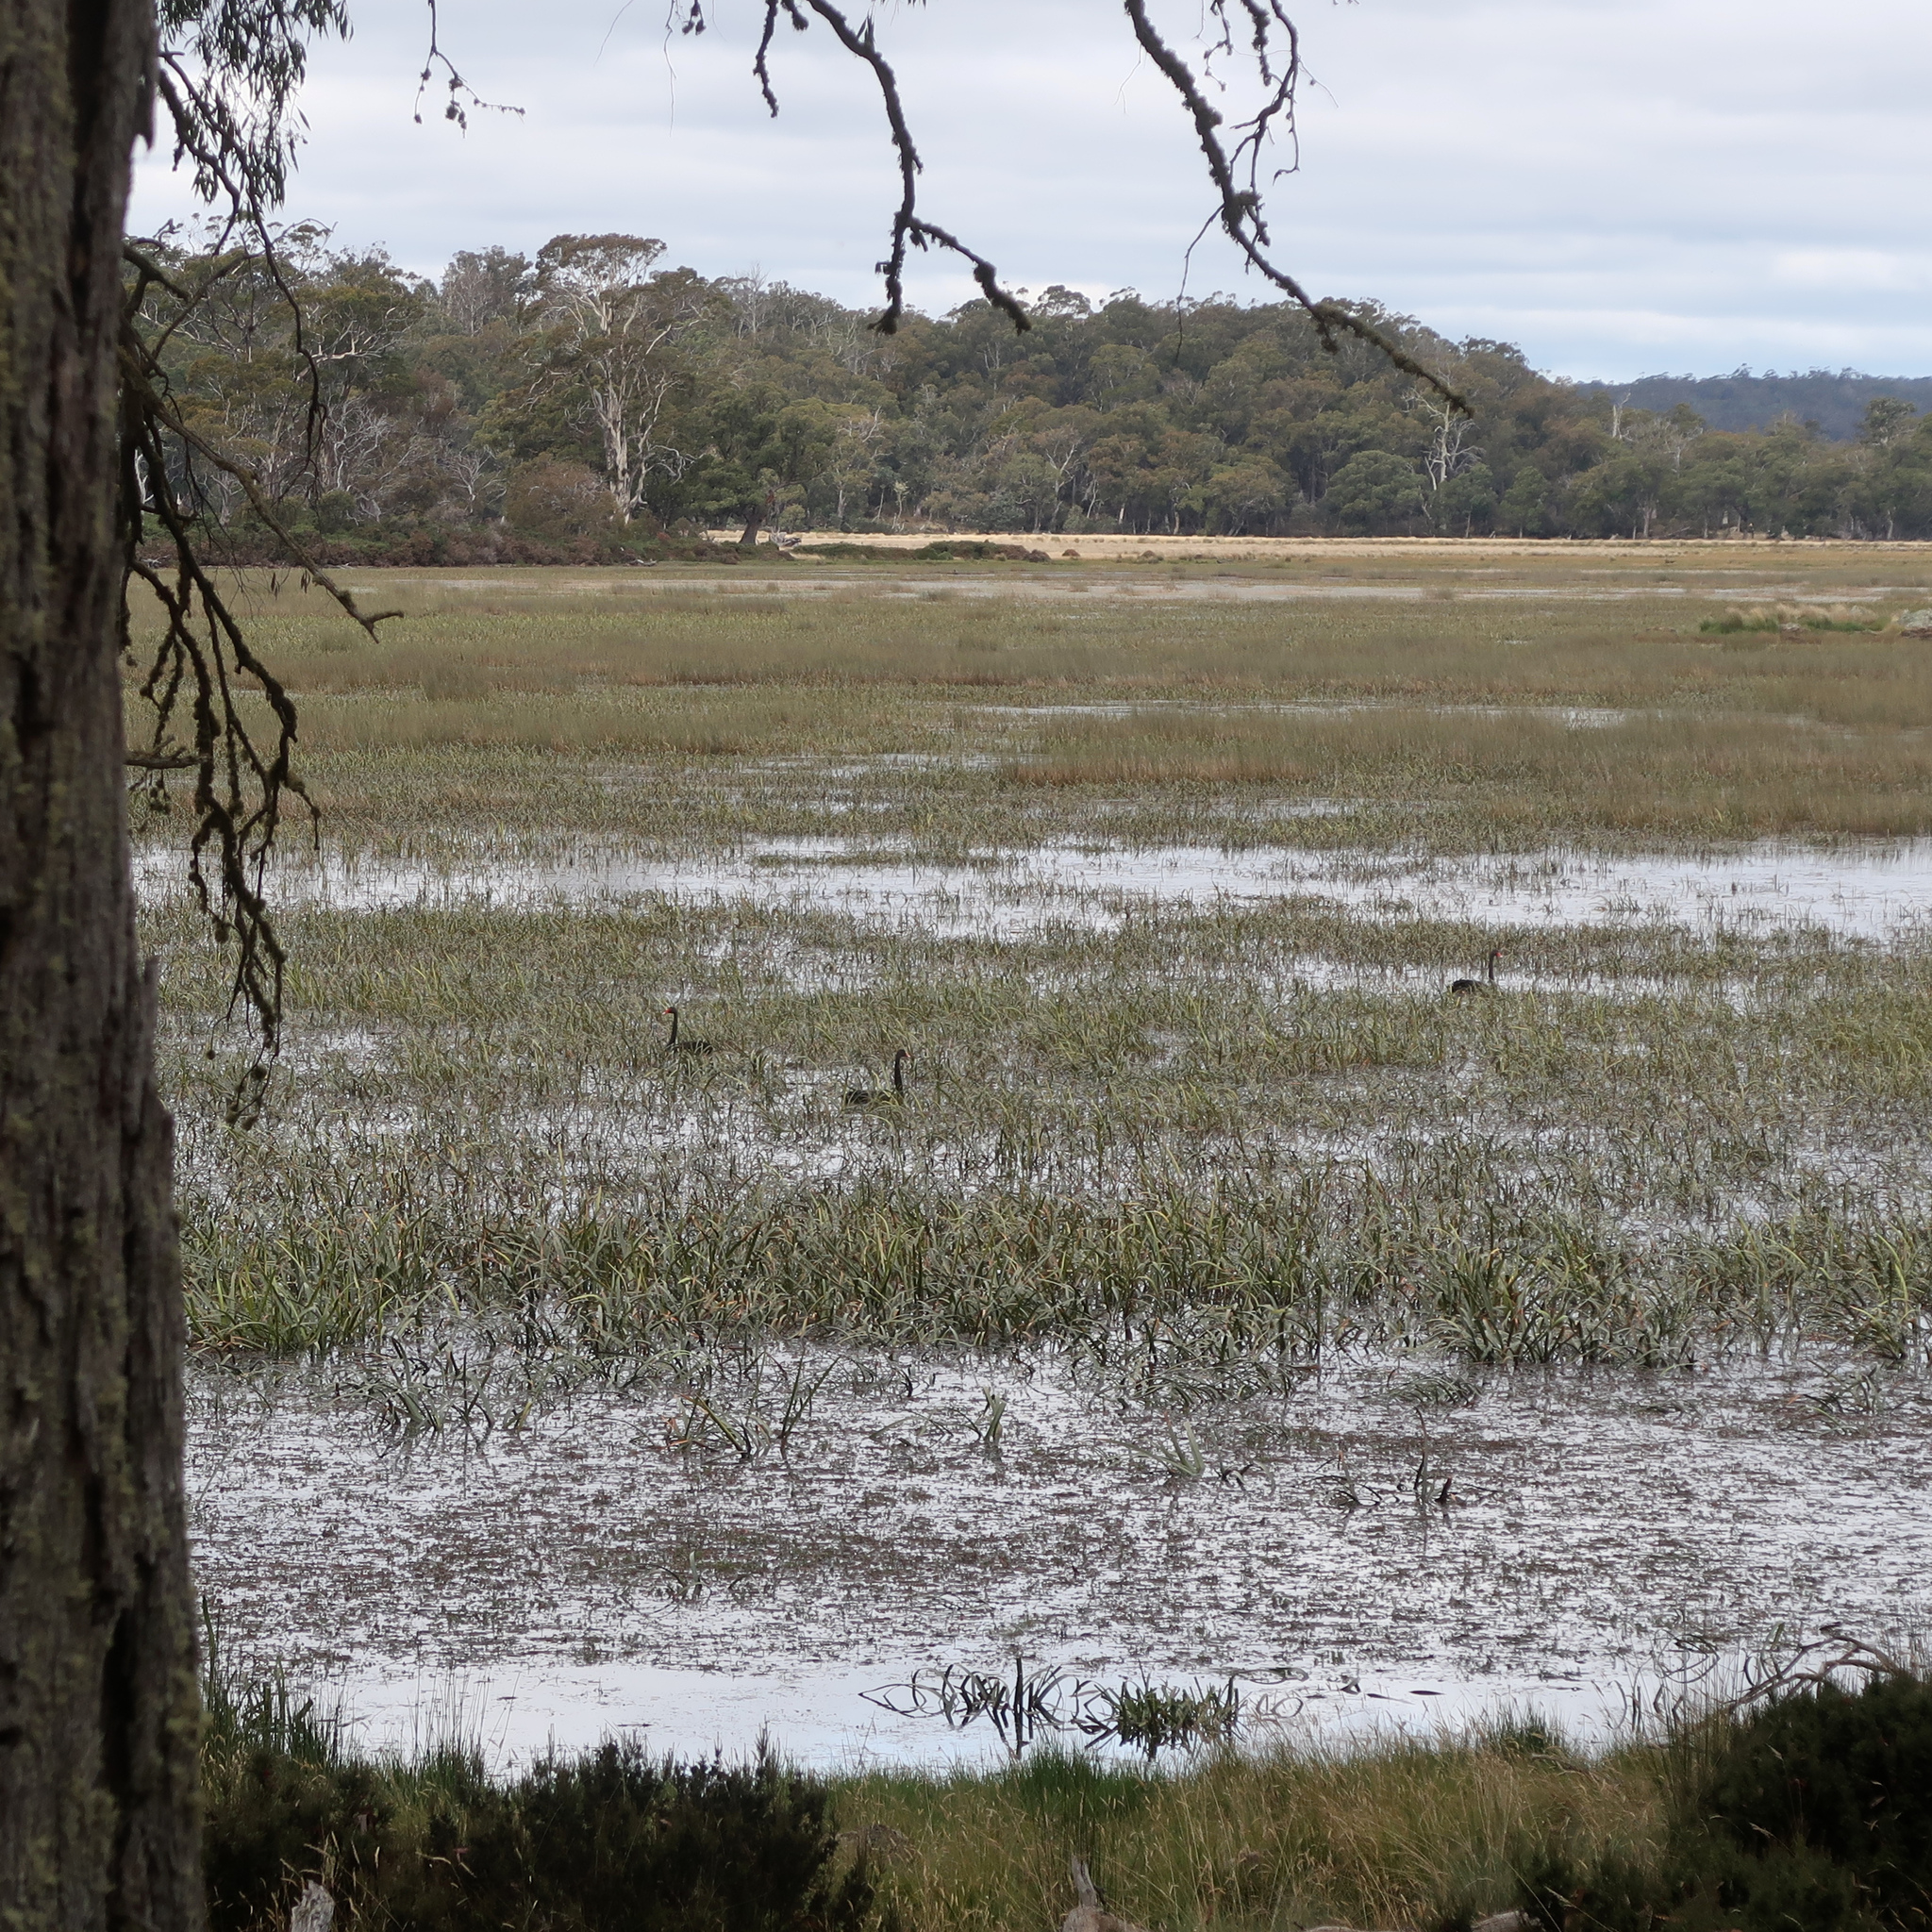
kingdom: Animalia
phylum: Chordata
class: Aves
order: Anseriformes
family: Anatidae
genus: Cygnus
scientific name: Cygnus atratus
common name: Black swan
